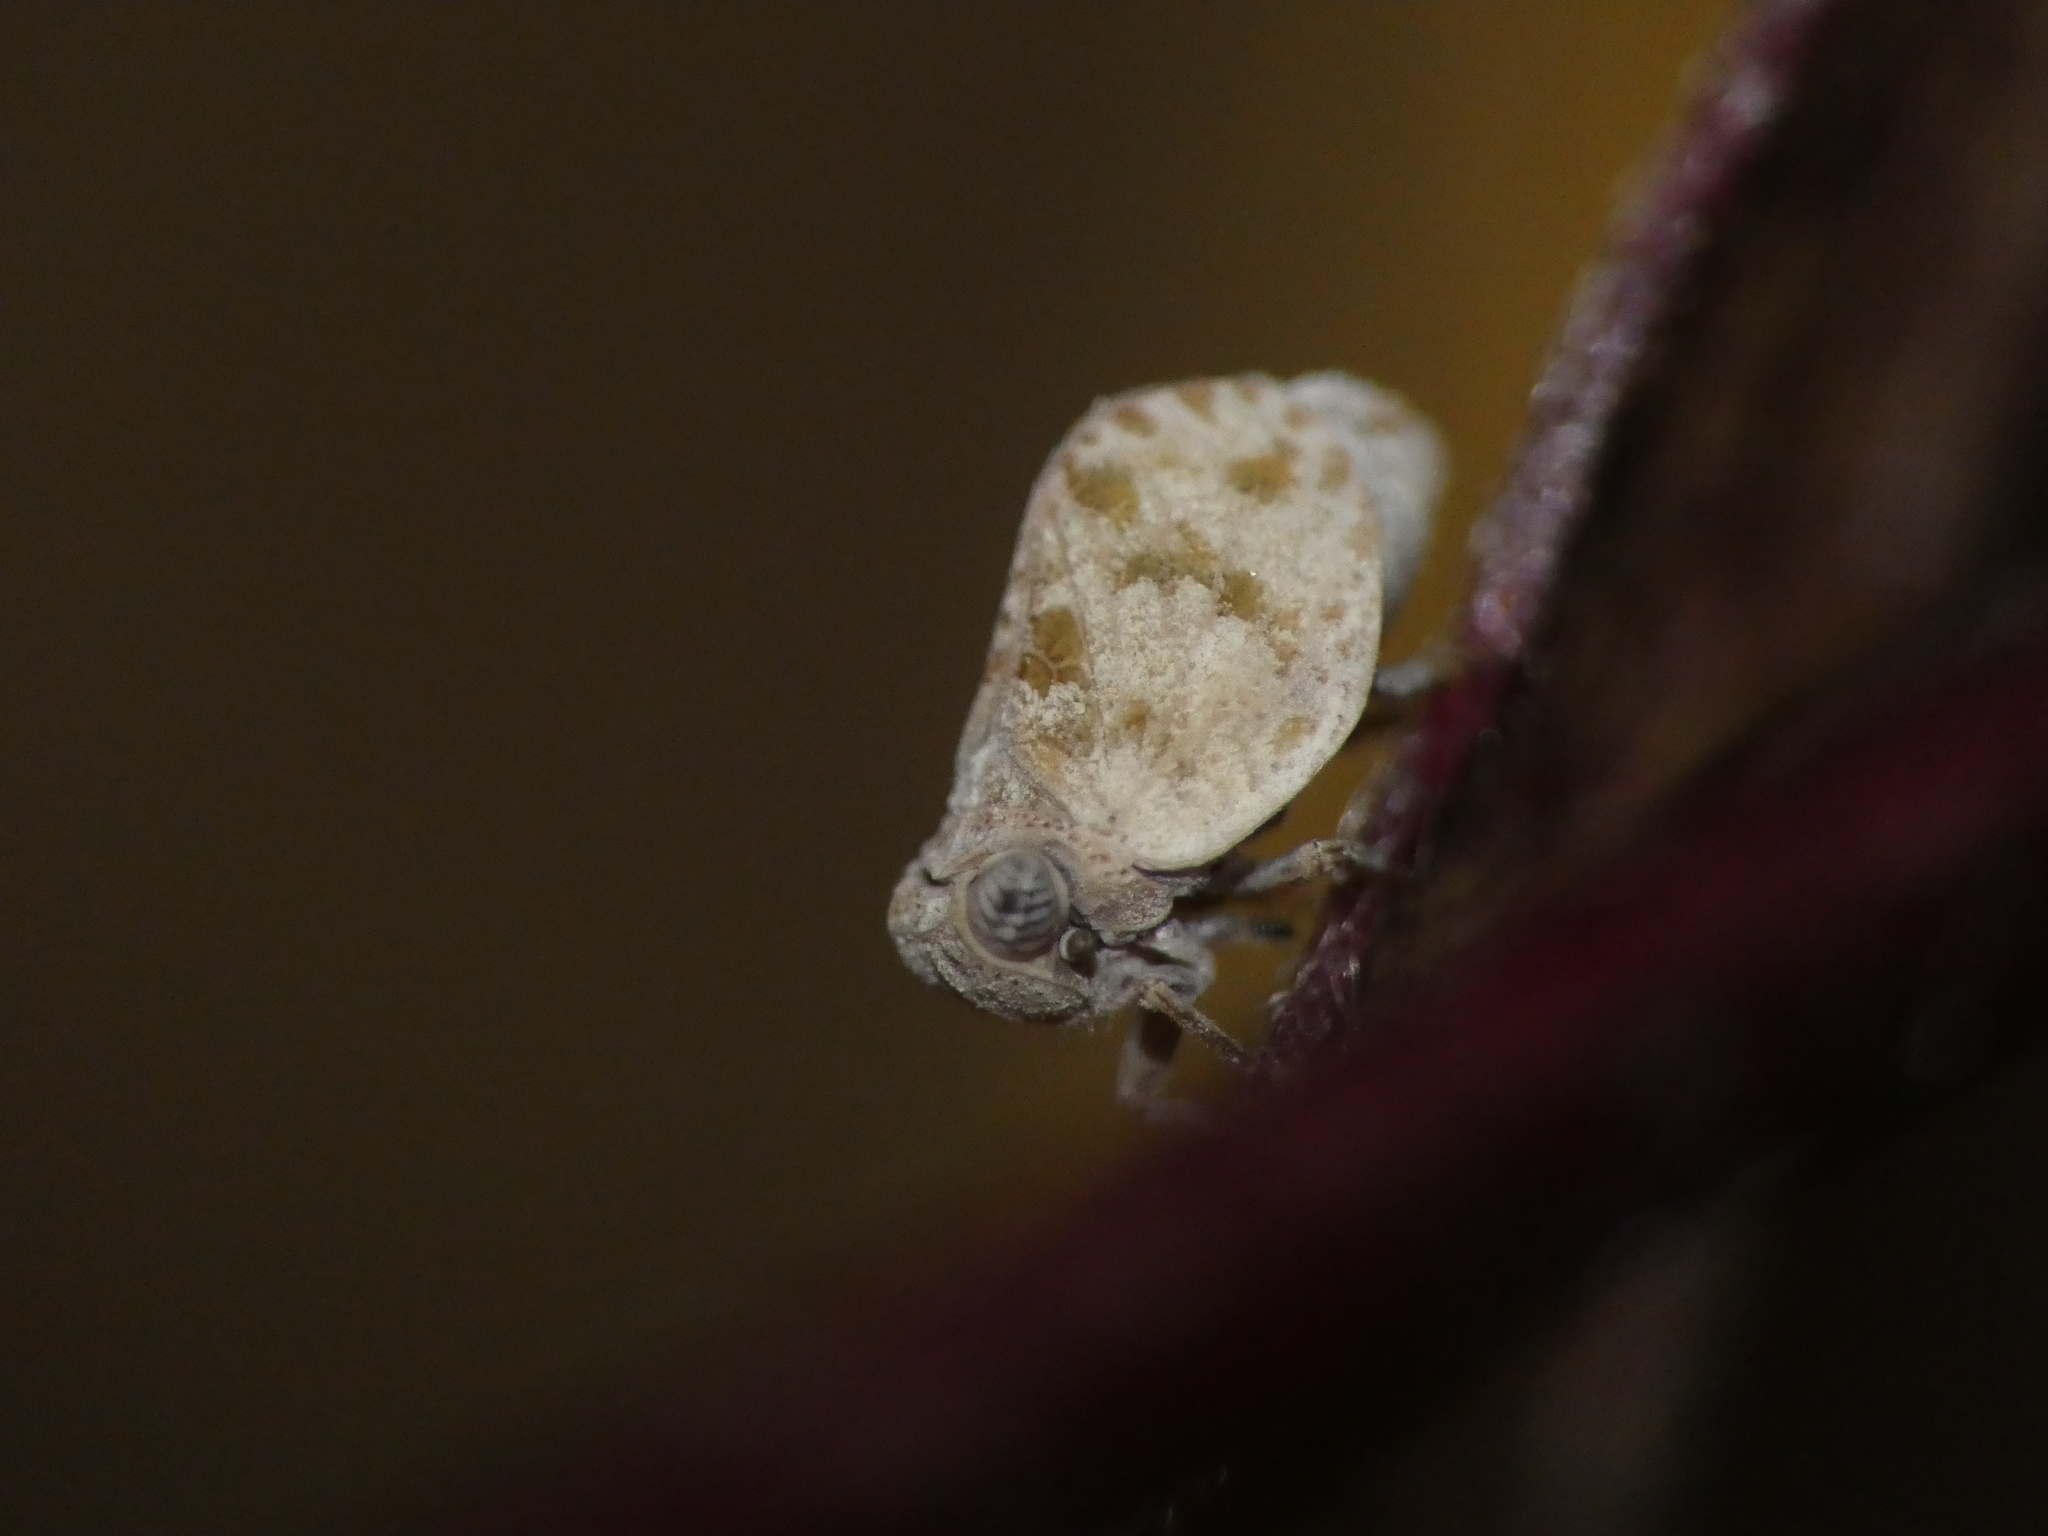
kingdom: Animalia
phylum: Arthropoda
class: Insecta
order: Hemiptera
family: Issidae
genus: Hysteropterum
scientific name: Hysteropterum dolichotum
